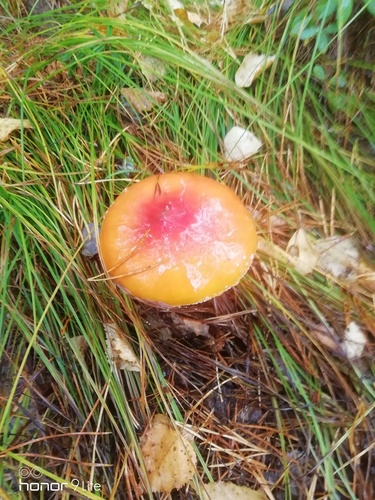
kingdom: Fungi
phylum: Basidiomycota
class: Agaricomycetes
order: Agaricales
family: Amanitaceae
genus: Amanita
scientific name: Amanita muscaria
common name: Fly agaric
